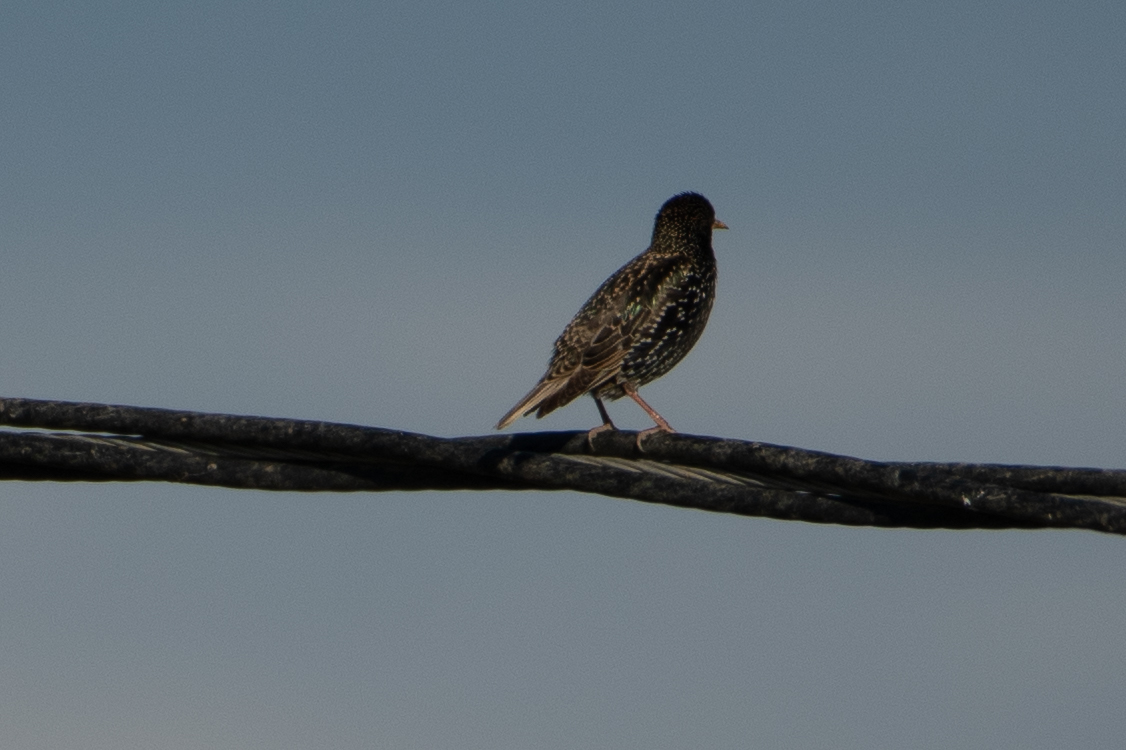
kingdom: Animalia
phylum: Chordata
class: Aves
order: Passeriformes
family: Sturnidae
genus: Sturnus
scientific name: Sturnus vulgaris
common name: Common starling
